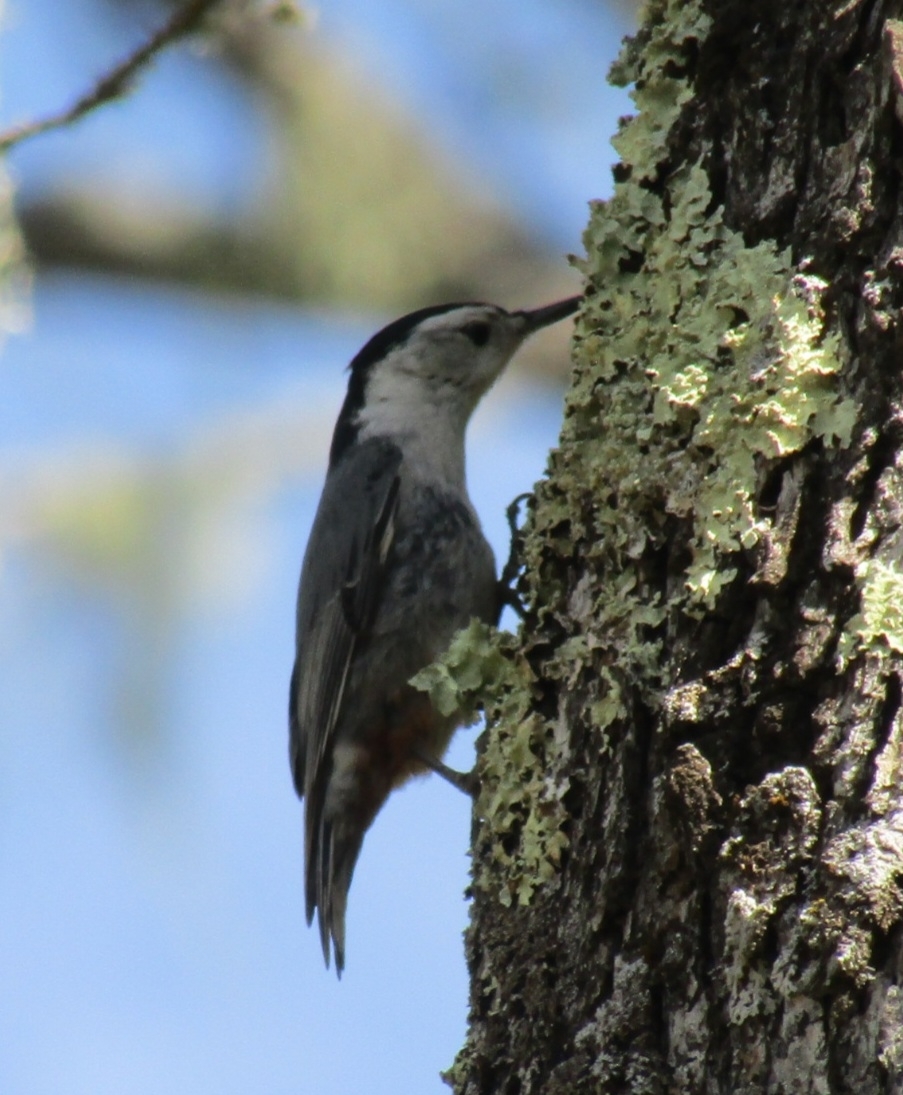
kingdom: Animalia
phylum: Chordata
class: Aves
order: Passeriformes
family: Sittidae
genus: Sitta
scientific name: Sitta carolinensis
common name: White-breasted nuthatch
